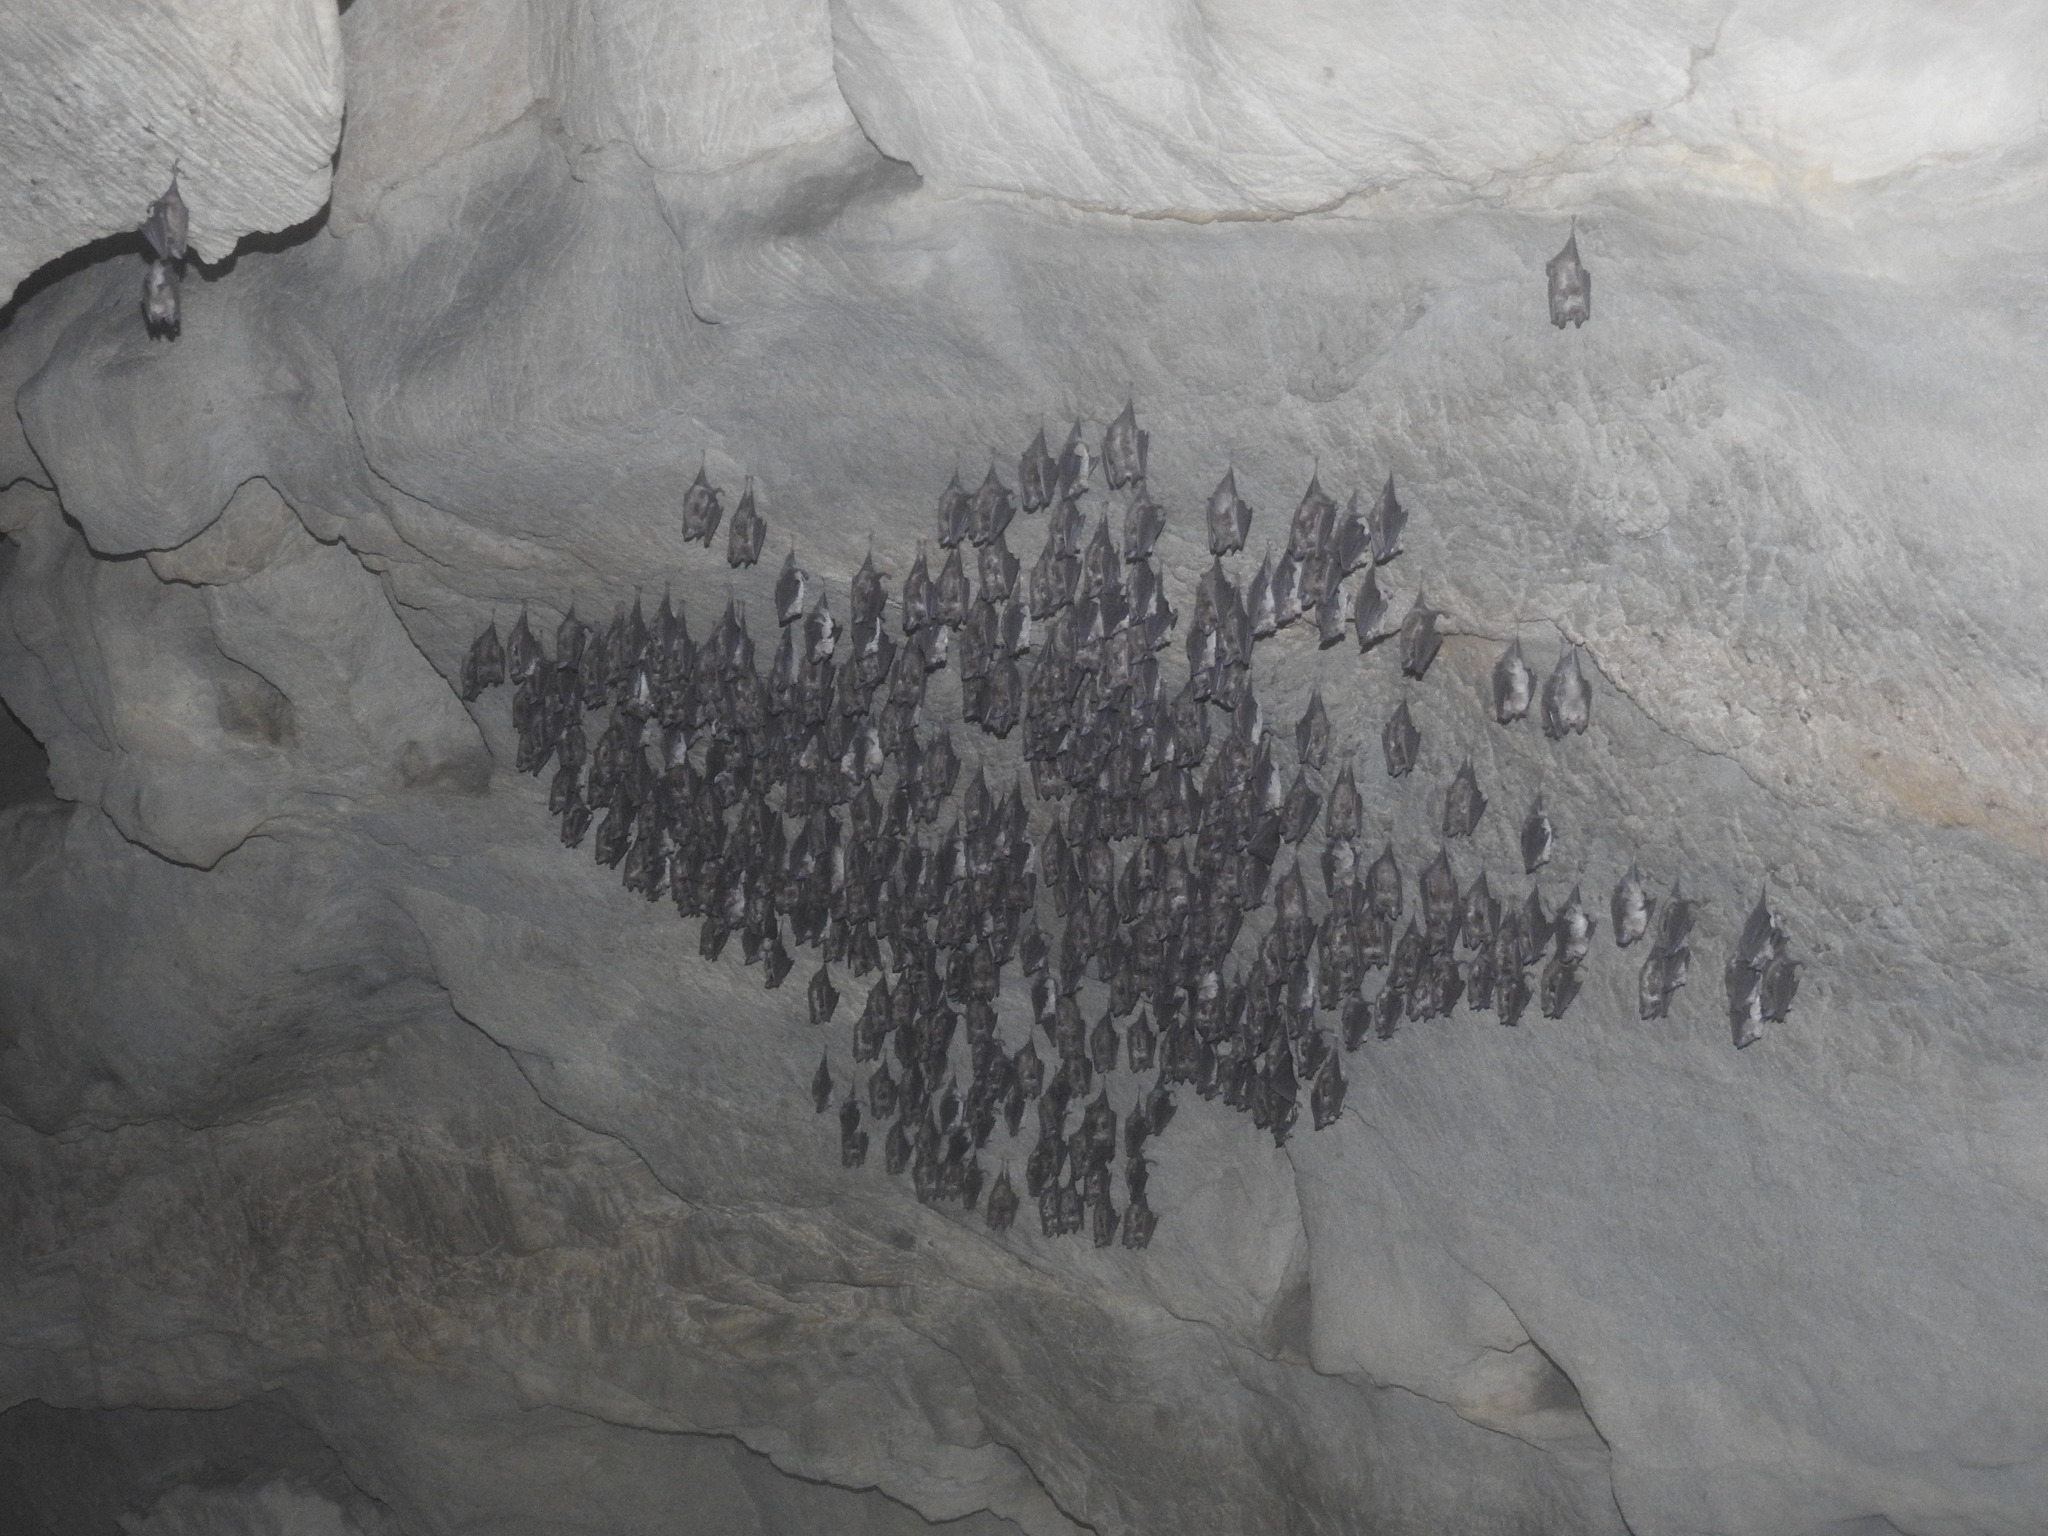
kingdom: Animalia
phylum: Chordata
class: Mammalia
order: Chiroptera
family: Rhinolophidae
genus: Rhinolophus
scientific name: Rhinolophus euryale
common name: Mediterranean horseshoe bat
